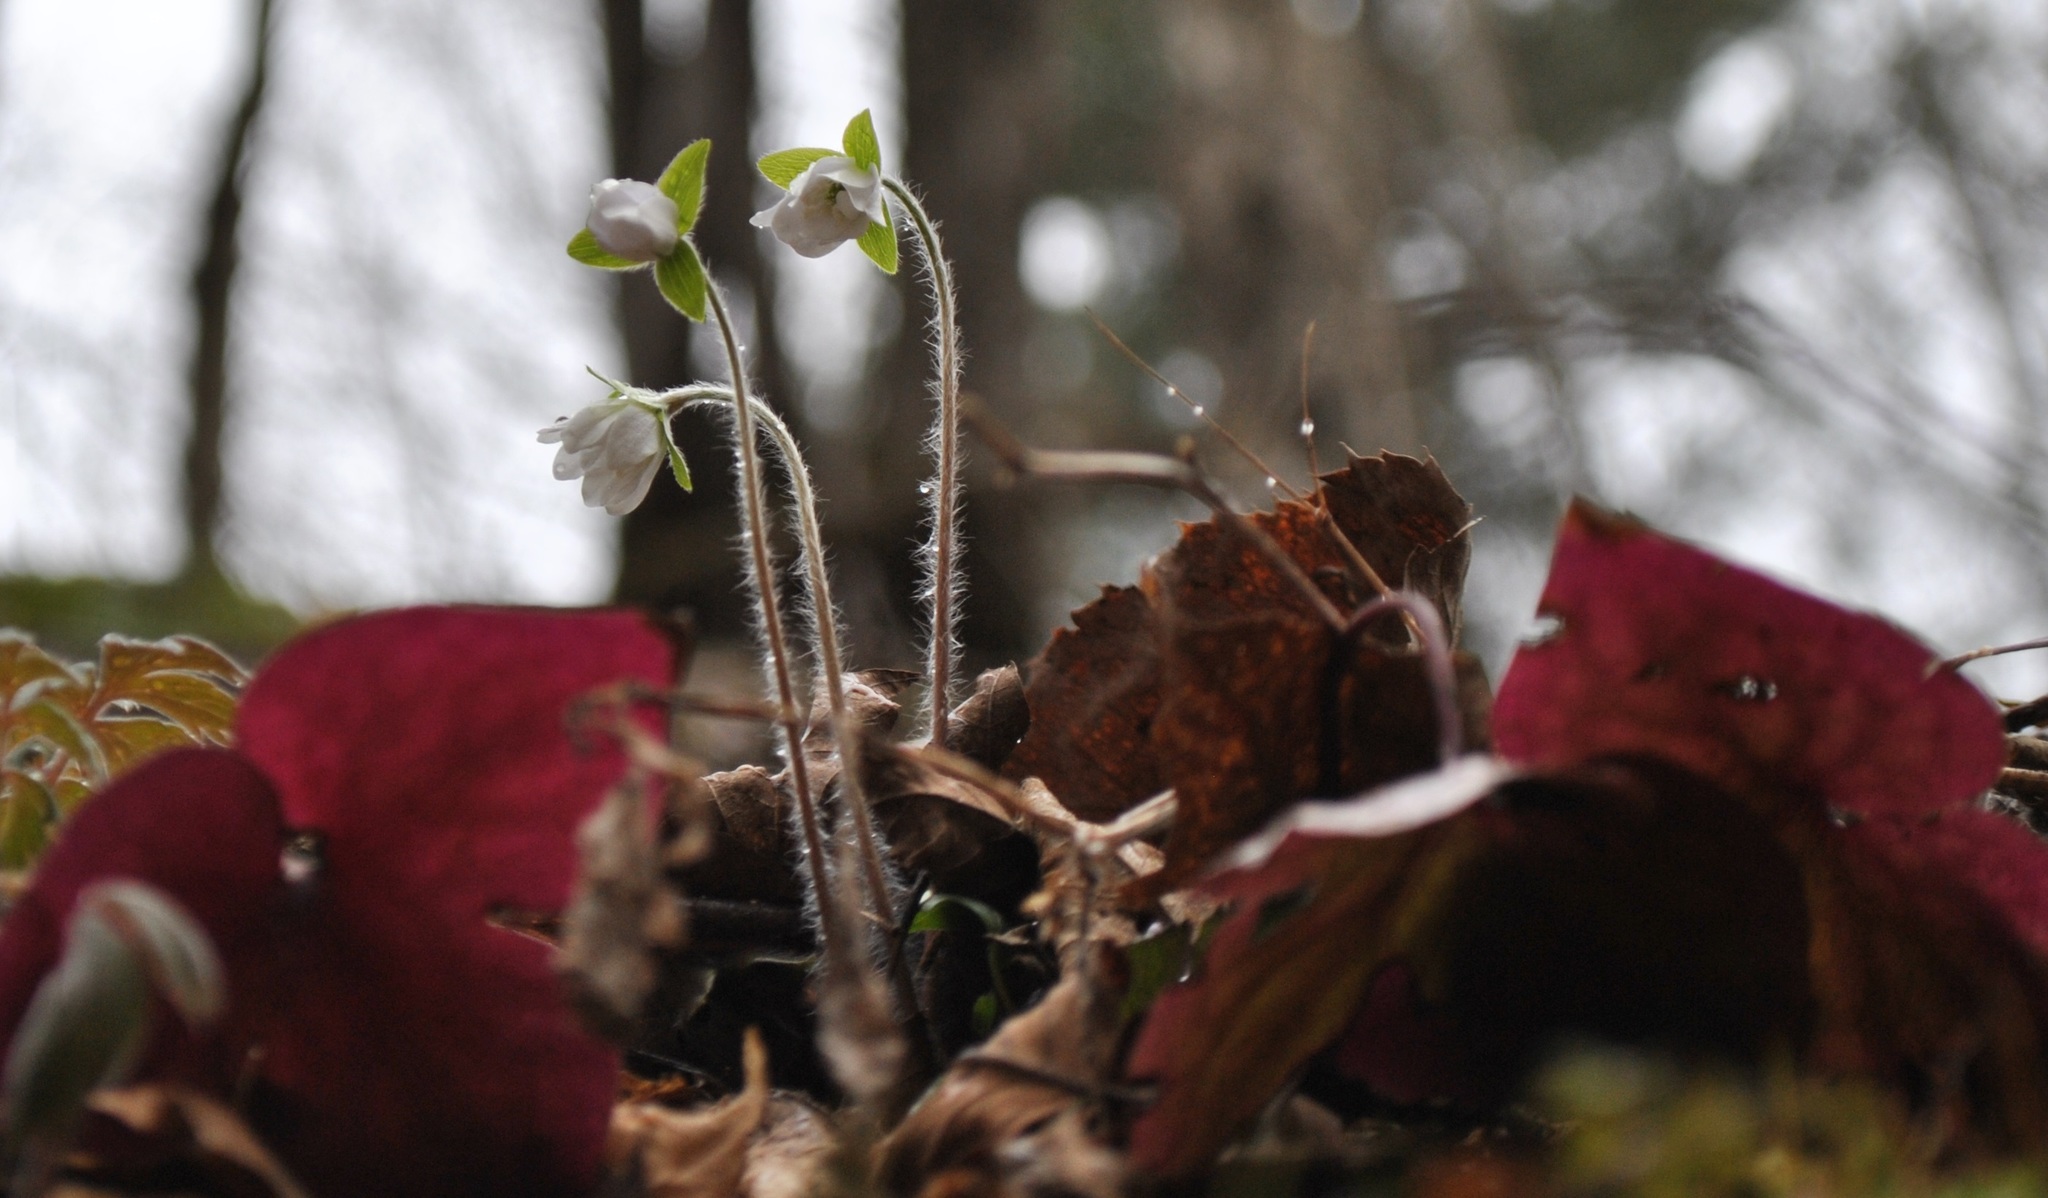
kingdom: Plantae
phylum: Tracheophyta
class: Magnoliopsida
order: Ranunculales
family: Ranunculaceae
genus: Hepatica
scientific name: Hepatica acutiloba
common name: Sharp-lobed hepatica
